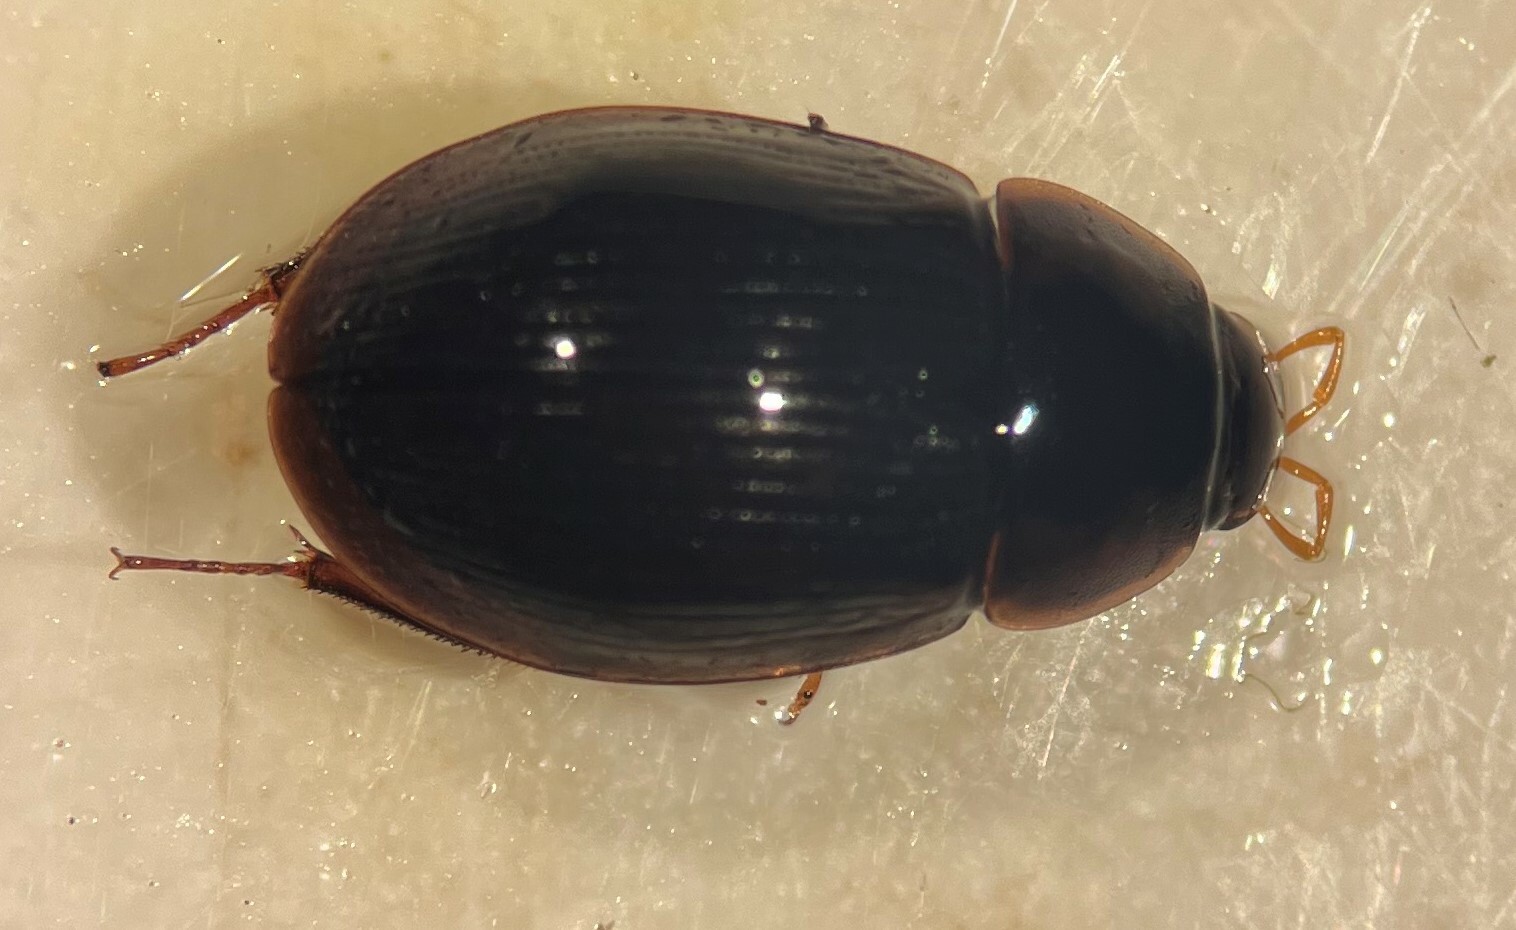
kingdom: Animalia
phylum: Arthropoda
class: Insecta
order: Coleoptera
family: Hydrophilidae
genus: Helochares
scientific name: Helochares maculicollis
